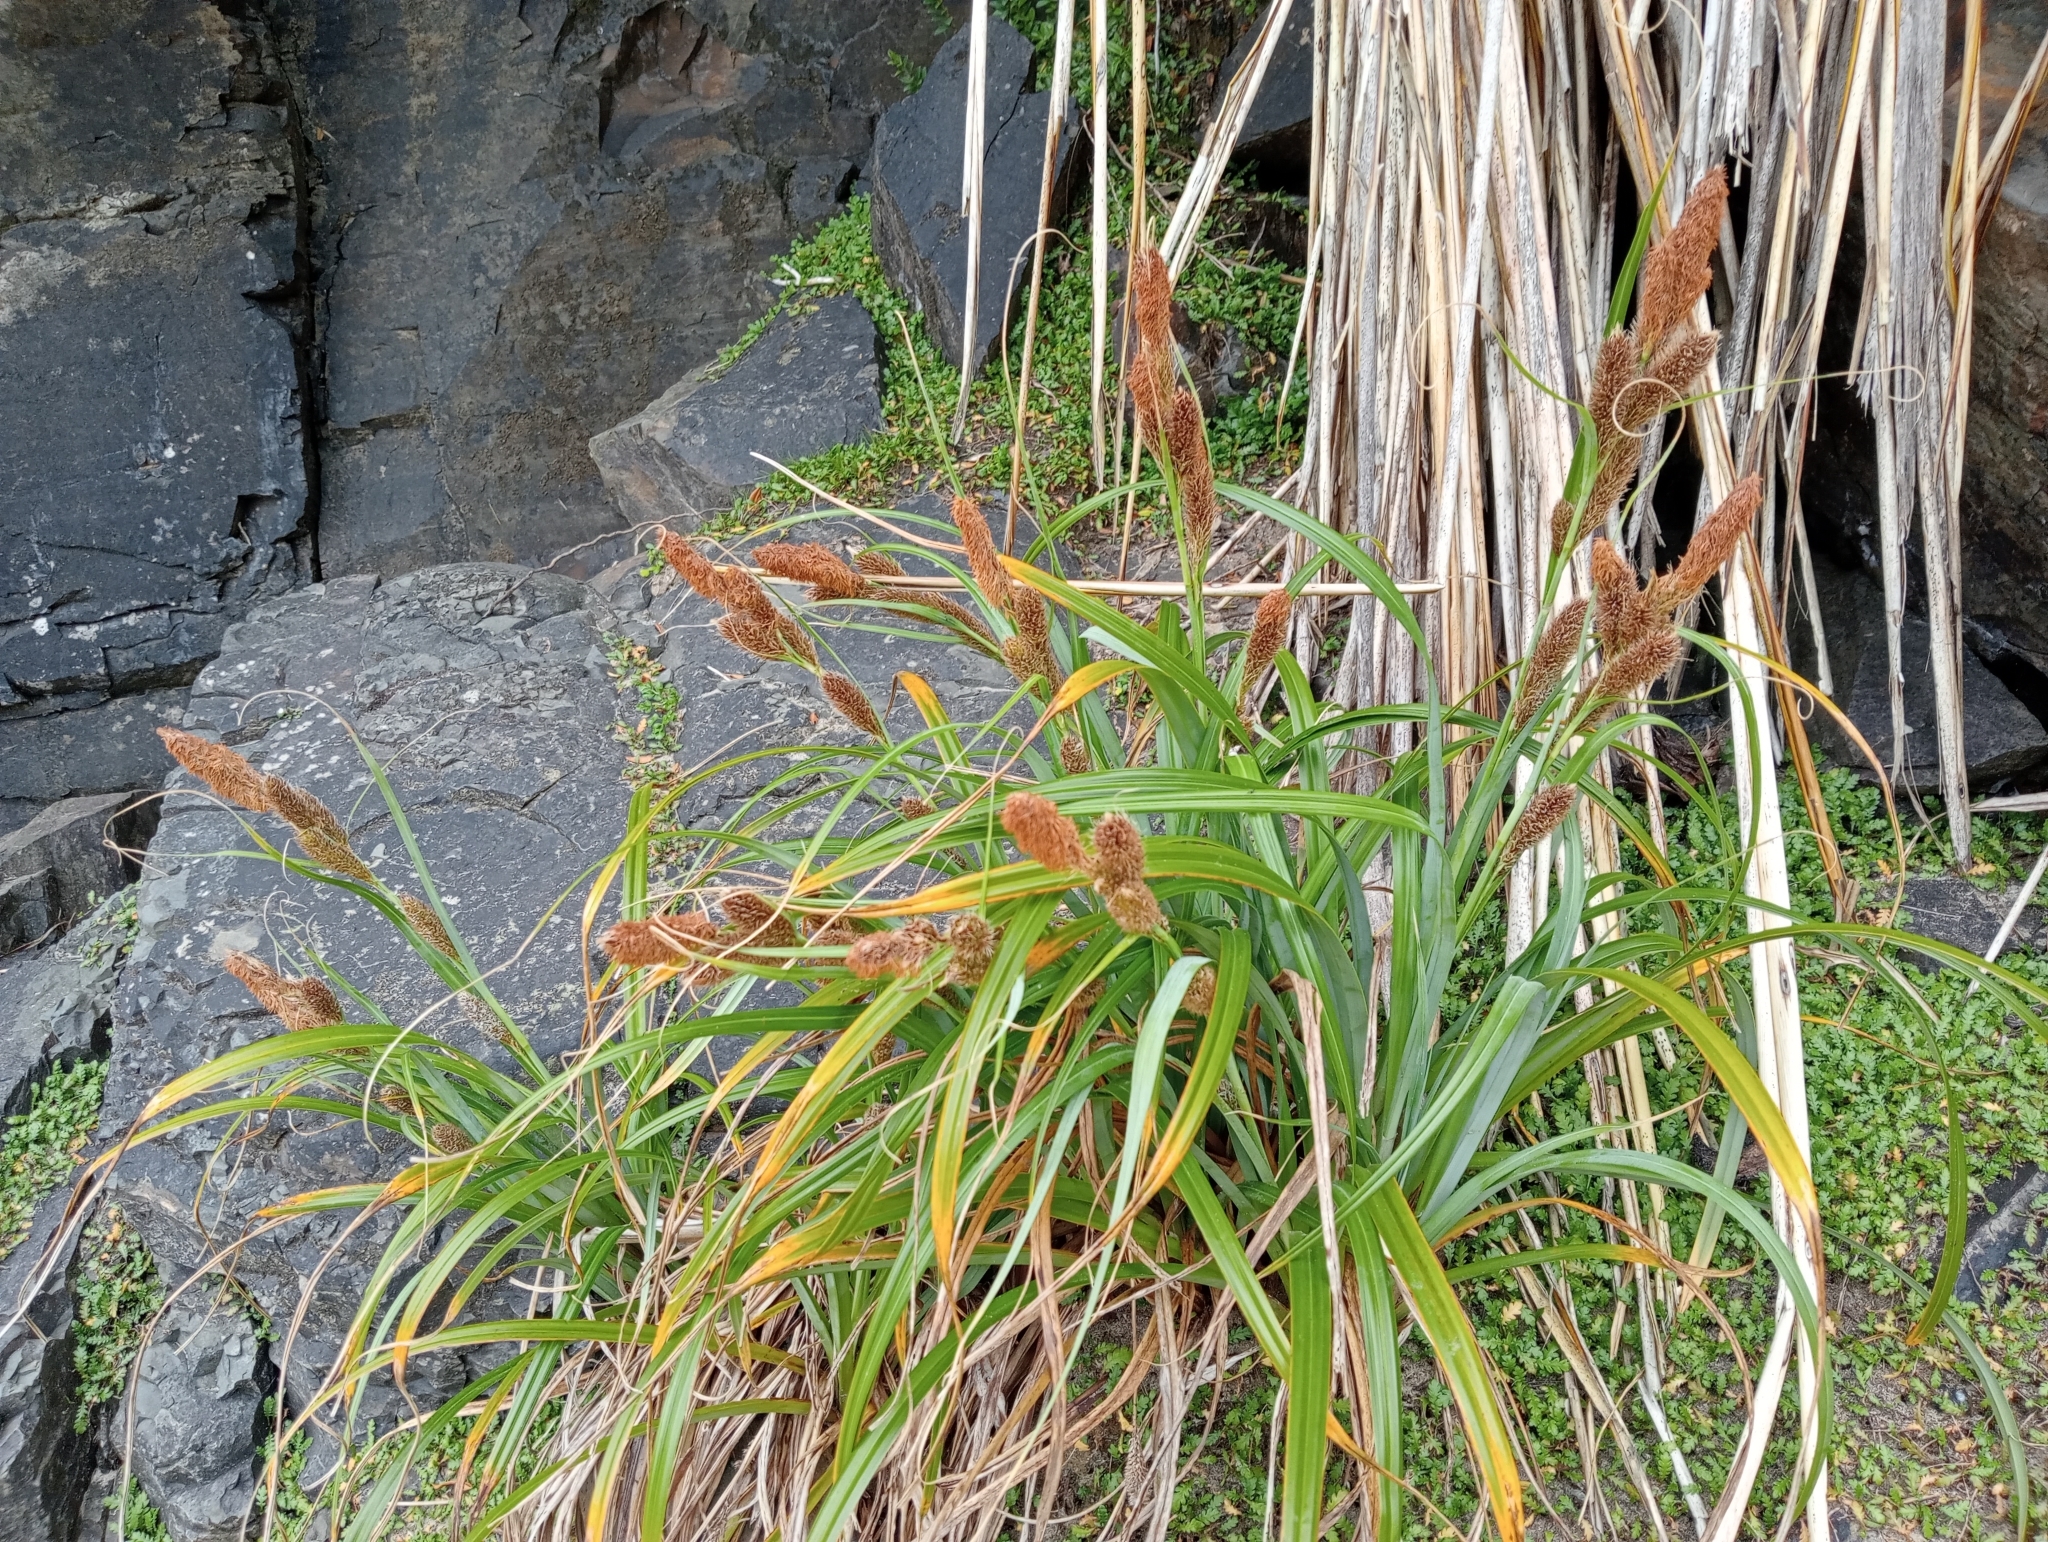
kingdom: Plantae
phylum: Tracheophyta
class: Liliopsida
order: Poales
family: Cyperaceae
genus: Carex
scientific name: Carex trifida
